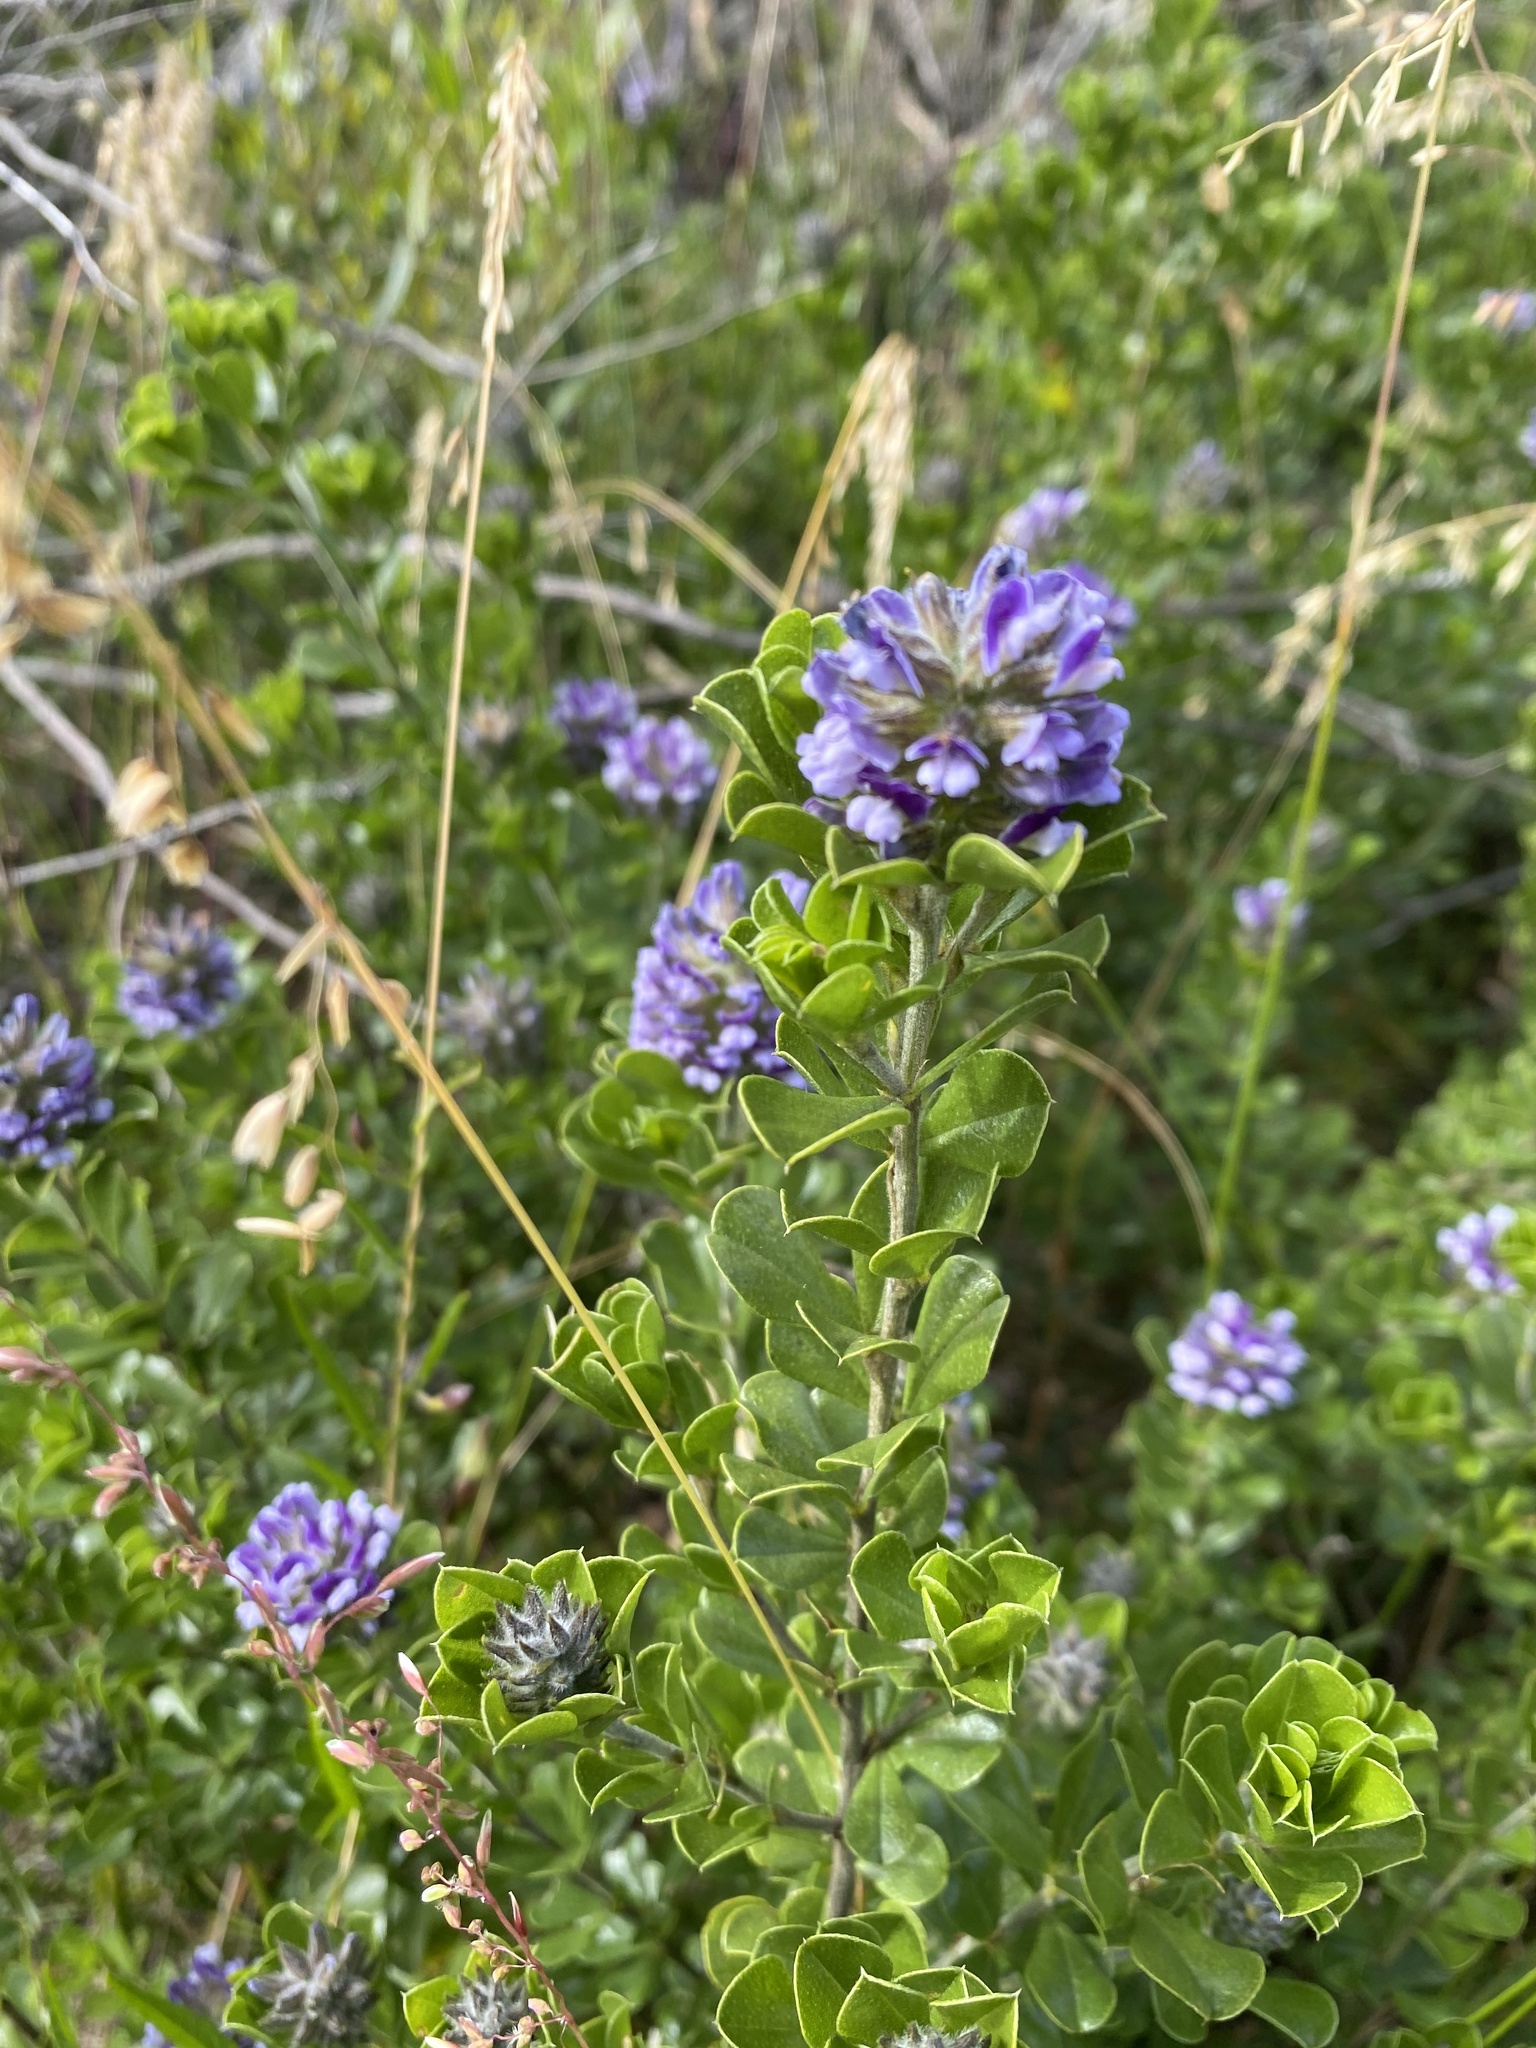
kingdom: Plantae
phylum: Tracheophyta
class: Magnoliopsida
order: Fabales
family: Fabaceae
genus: Psoralea
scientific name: Psoralea bracteolata
